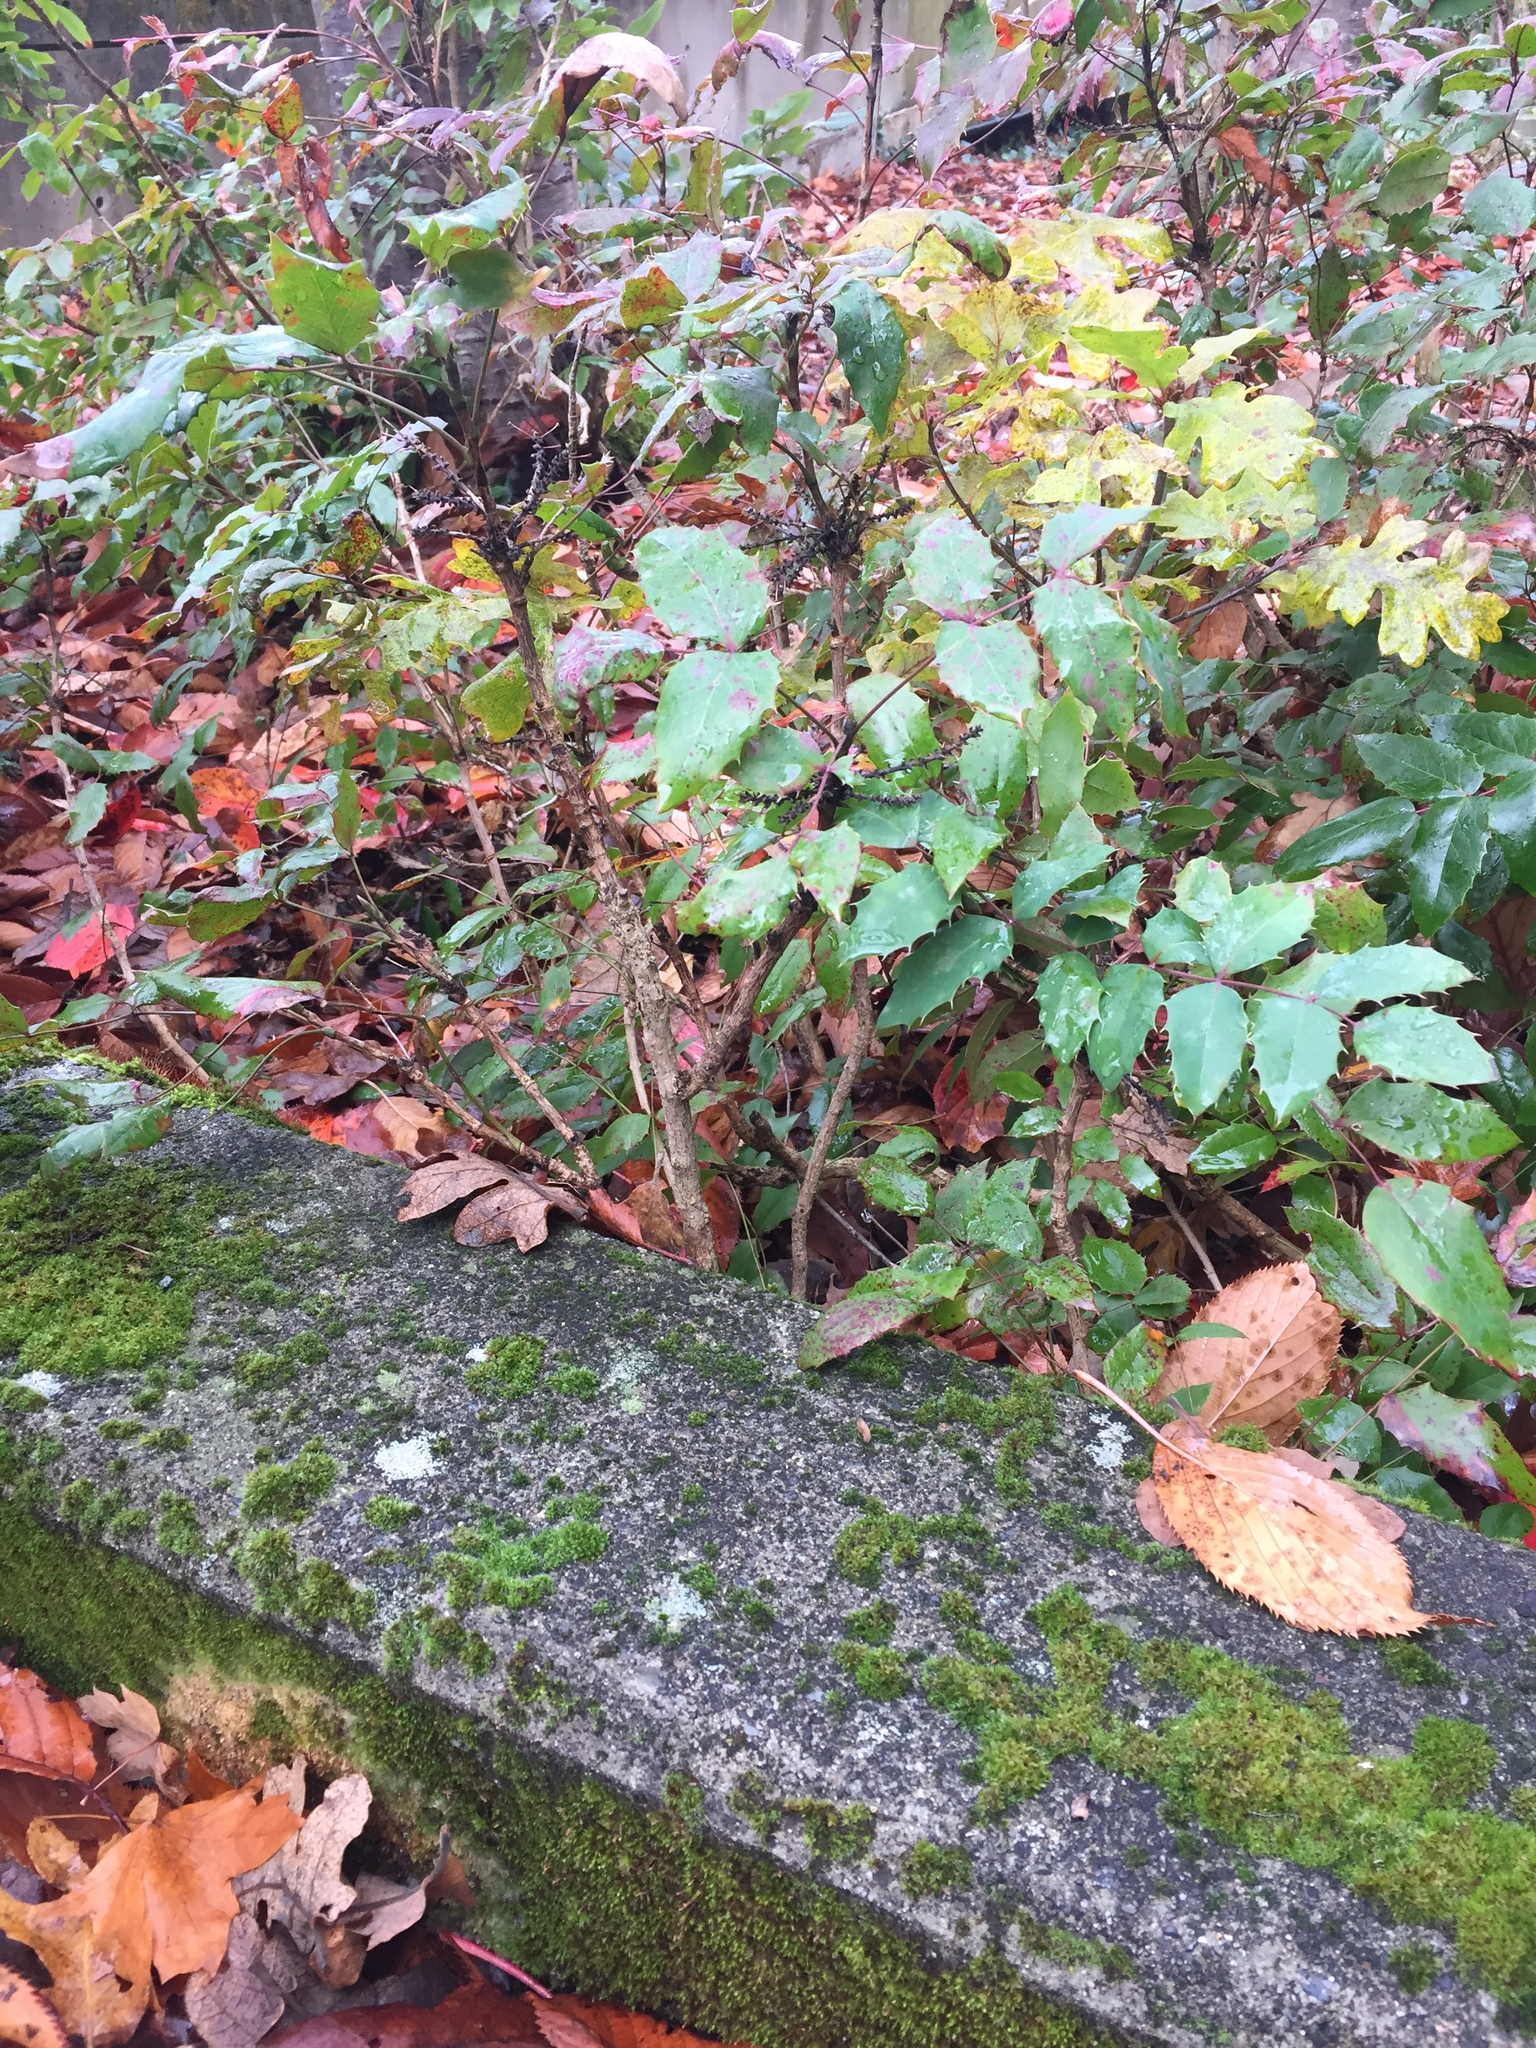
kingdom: Plantae
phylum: Tracheophyta
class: Magnoliopsida
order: Ranunculales
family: Berberidaceae
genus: Mahonia
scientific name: Mahonia aquifolium
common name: Oregon-grape
